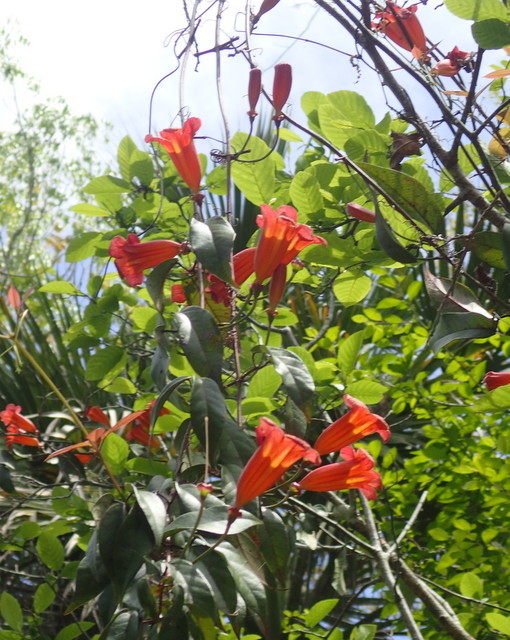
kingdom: Plantae
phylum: Tracheophyta
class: Magnoliopsida
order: Lamiales
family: Bignoniaceae
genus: Bignonia
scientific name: Bignonia capreolata
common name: Crossvine
